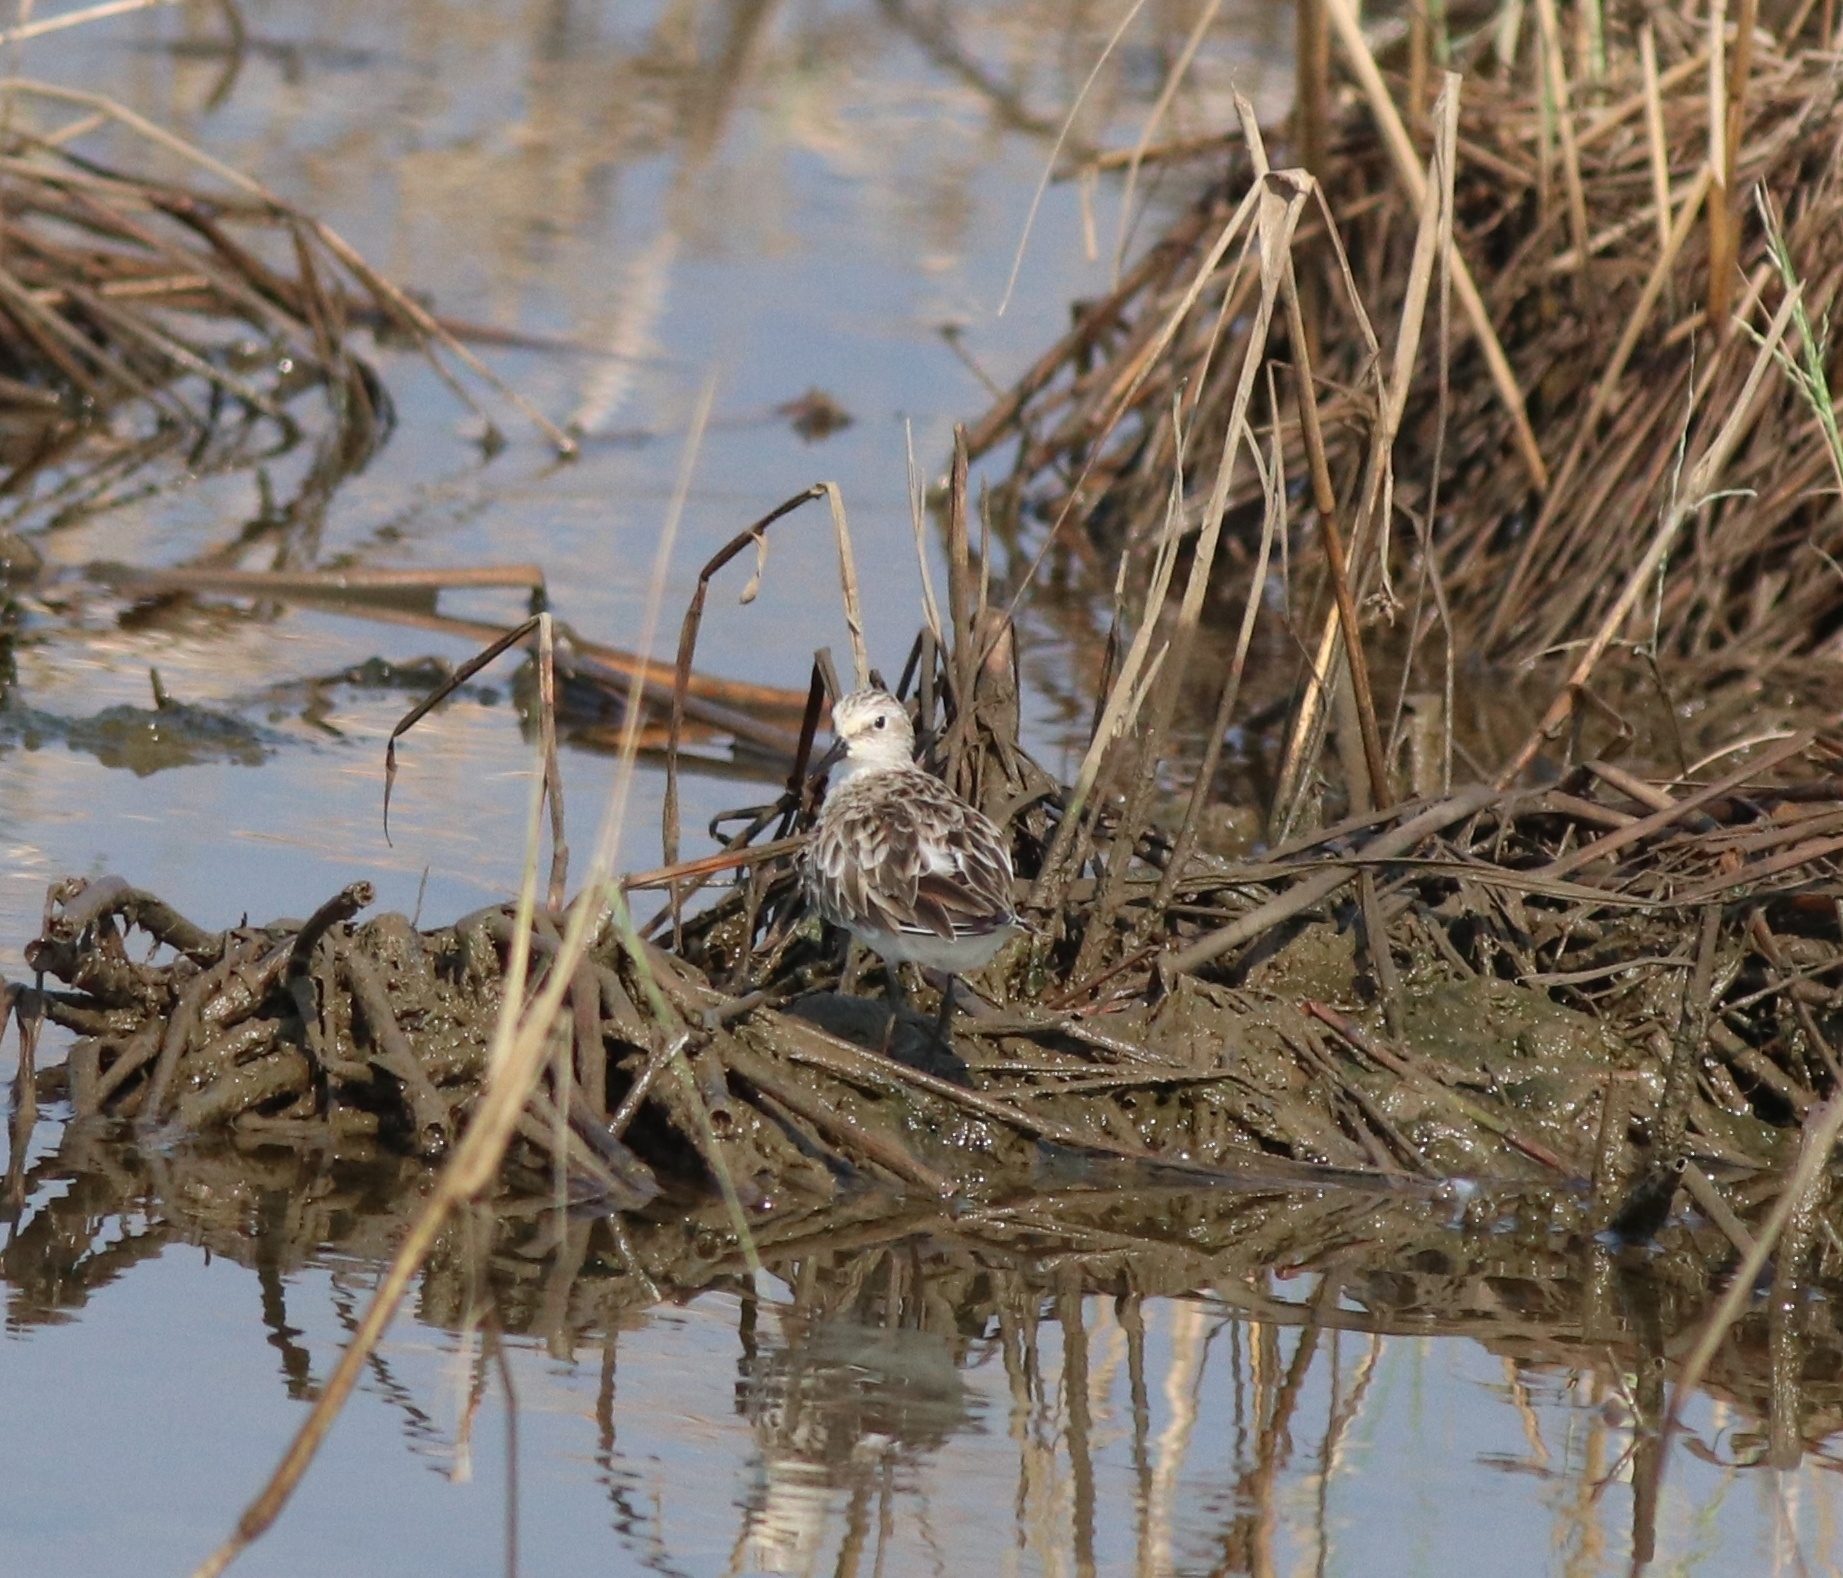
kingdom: Animalia
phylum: Chordata
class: Aves
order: Charadriiformes
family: Scolopacidae
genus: Calidris
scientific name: Calidris minuta
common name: Little stint
